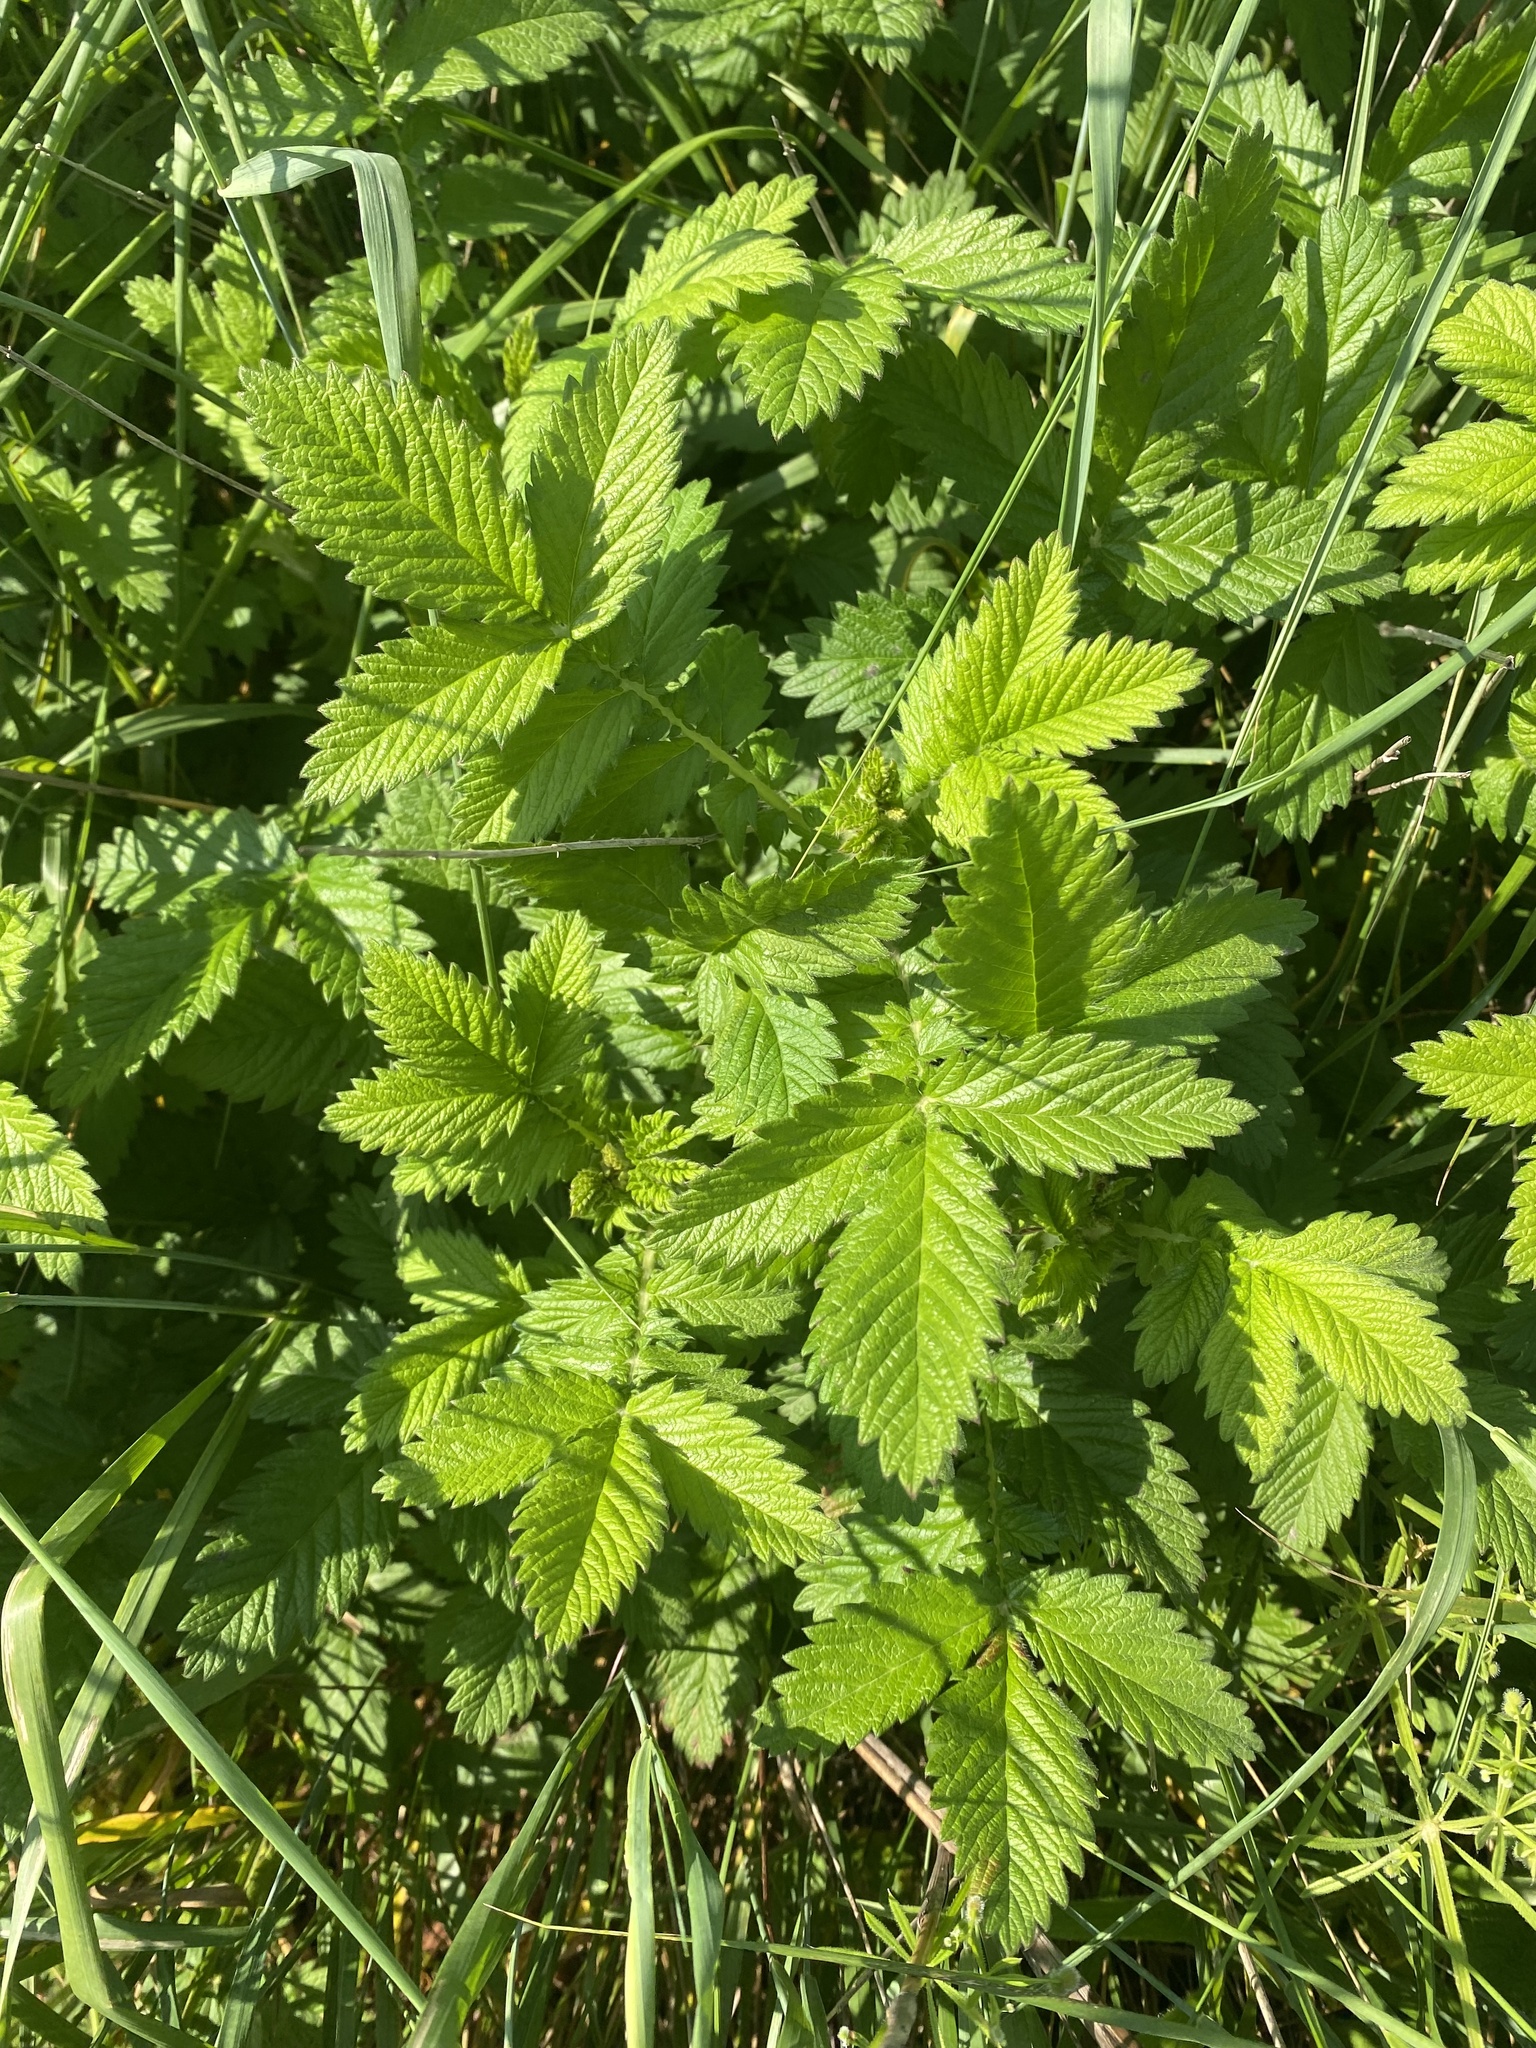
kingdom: Plantae
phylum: Tracheophyta
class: Magnoliopsida
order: Rosales
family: Rosaceae
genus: Agrimonia
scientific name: Agrimonia eupatoria
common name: Agrimony
